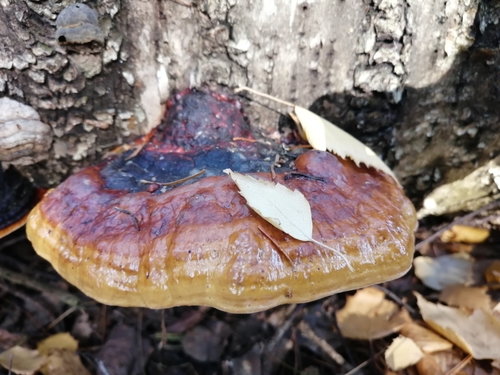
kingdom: Fungi
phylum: Basidiomycota
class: Agaricomycetes
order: Polyporales
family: Fomitopsidaceae
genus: Fomitopsis
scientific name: Fomitopsis pinicola
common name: Red-belted bracket
